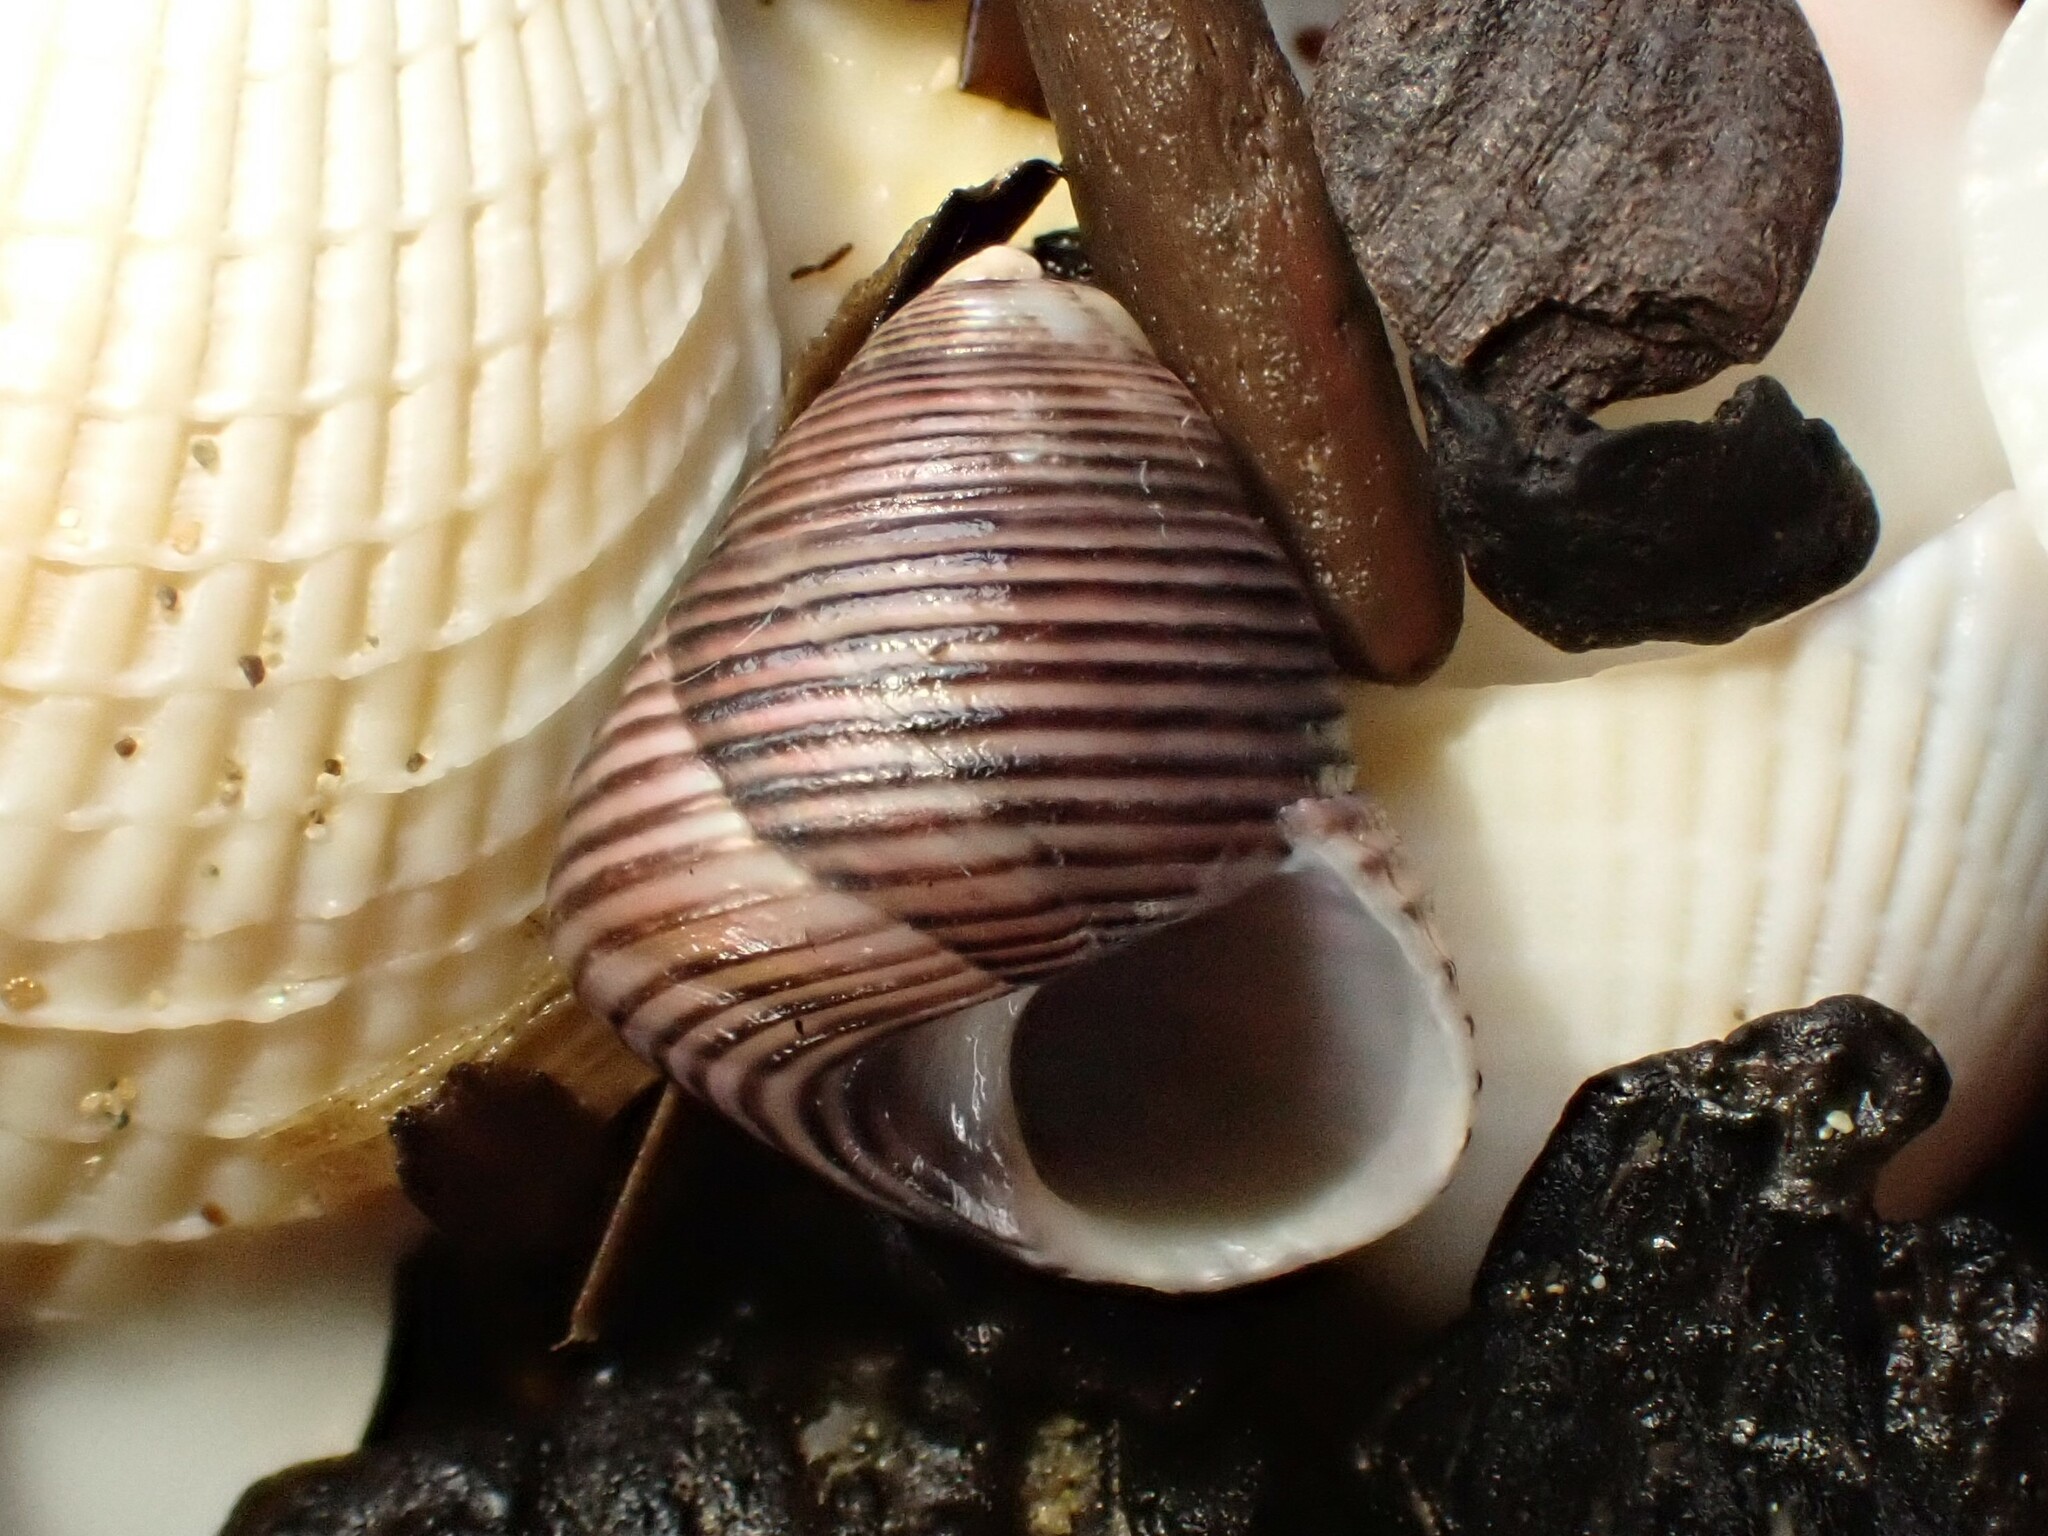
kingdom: Animalia
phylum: Mollusca
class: Gastropoda
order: Trochida
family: Trochidae
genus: Micrelenchus
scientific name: Micrelenchus huttonii
